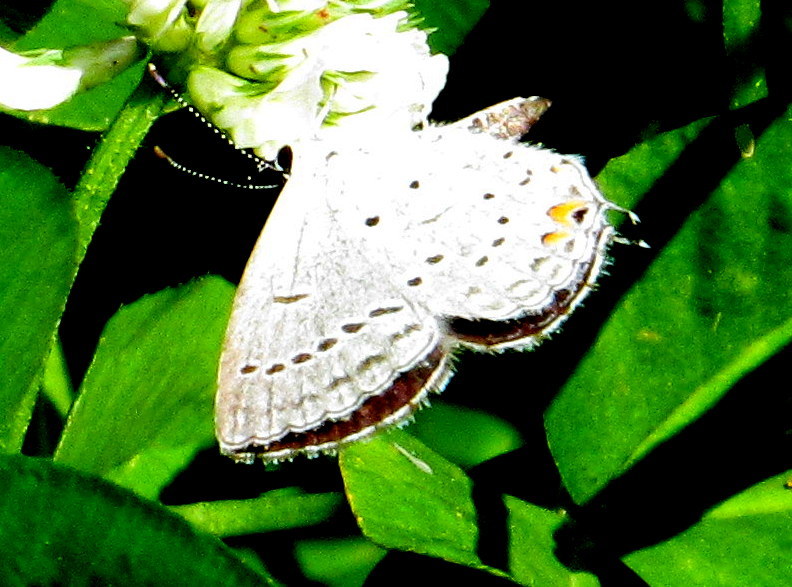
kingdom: Animalia
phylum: Arthropoda
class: Insecta
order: Lepidoptera
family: Lycaenidae
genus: Elkalyce
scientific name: Elkalyce comyntas
